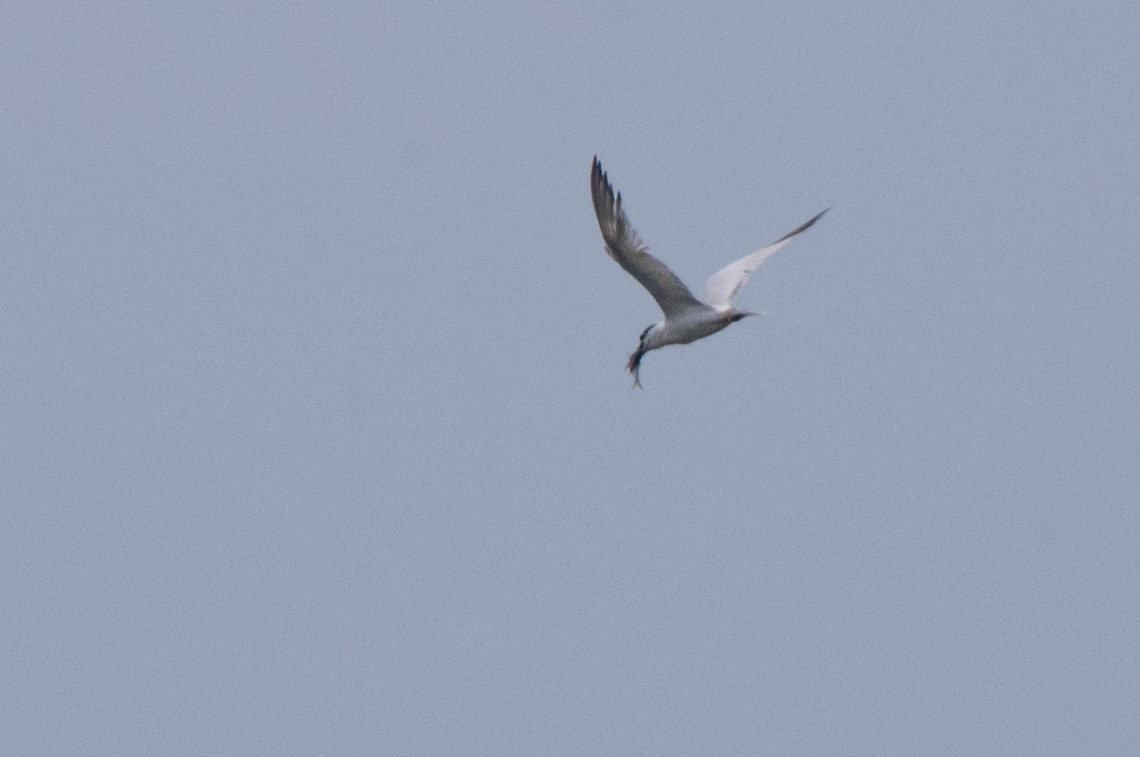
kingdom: Animalia
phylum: Chordata
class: Aves
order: Charadriiformes
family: Laridae
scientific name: Laridae
